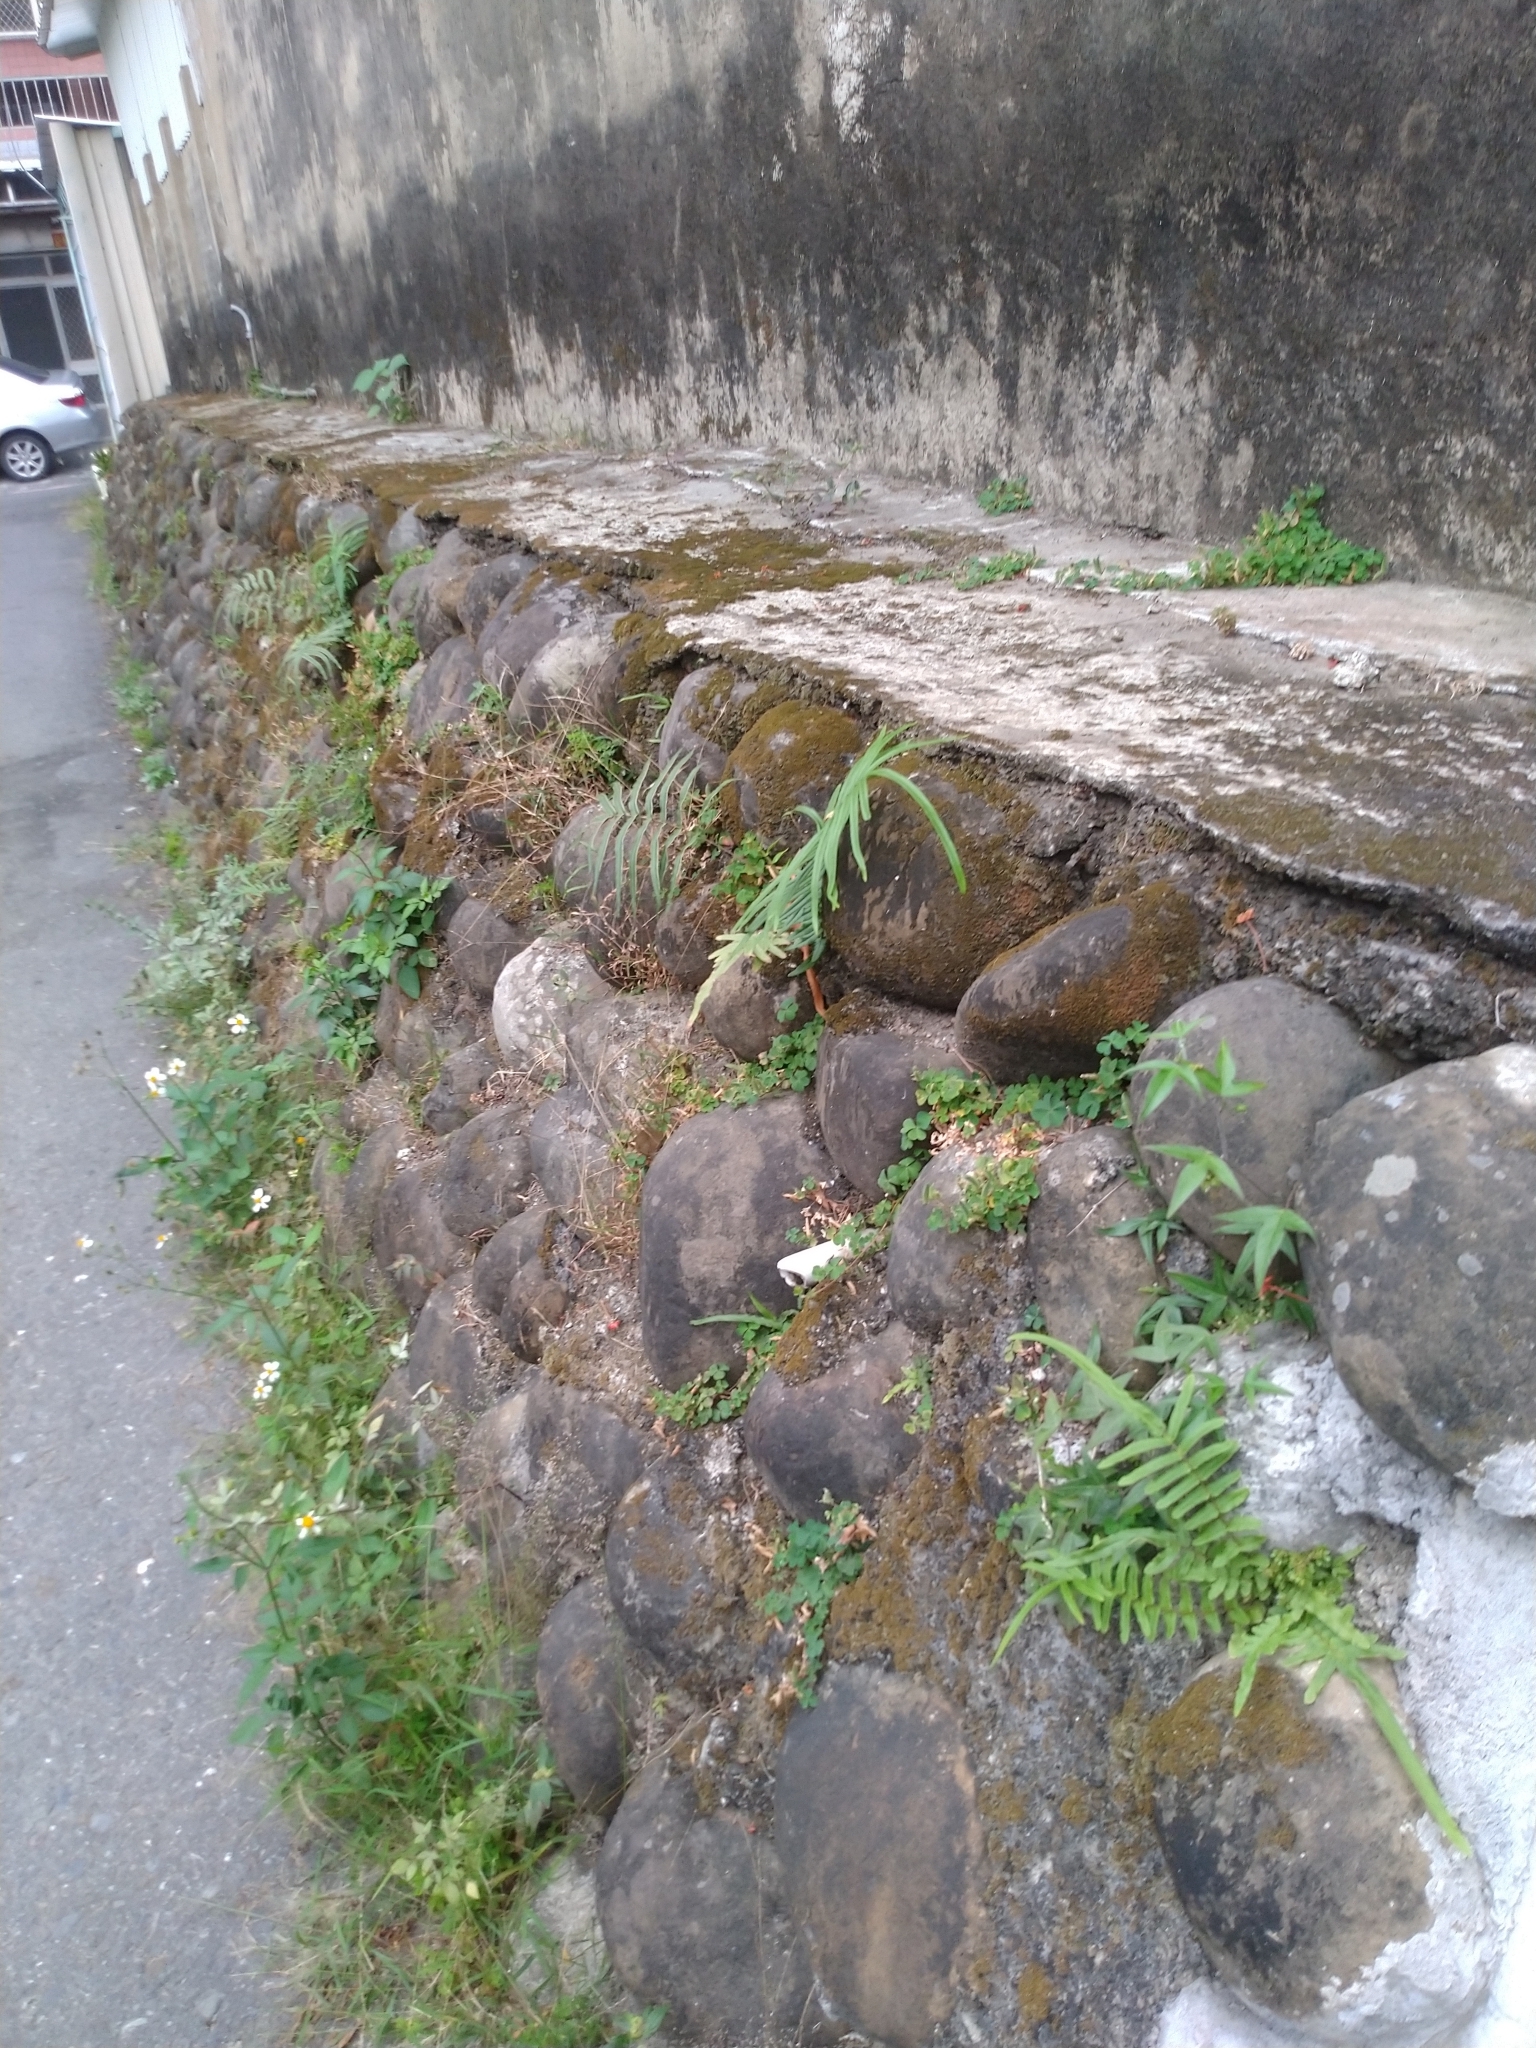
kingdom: Plantae
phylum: Tracheophyta
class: Polypodiopsida
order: Polypodiales
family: Pteridaceae
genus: Pteris
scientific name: Pteris vittata
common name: Ladder brake
